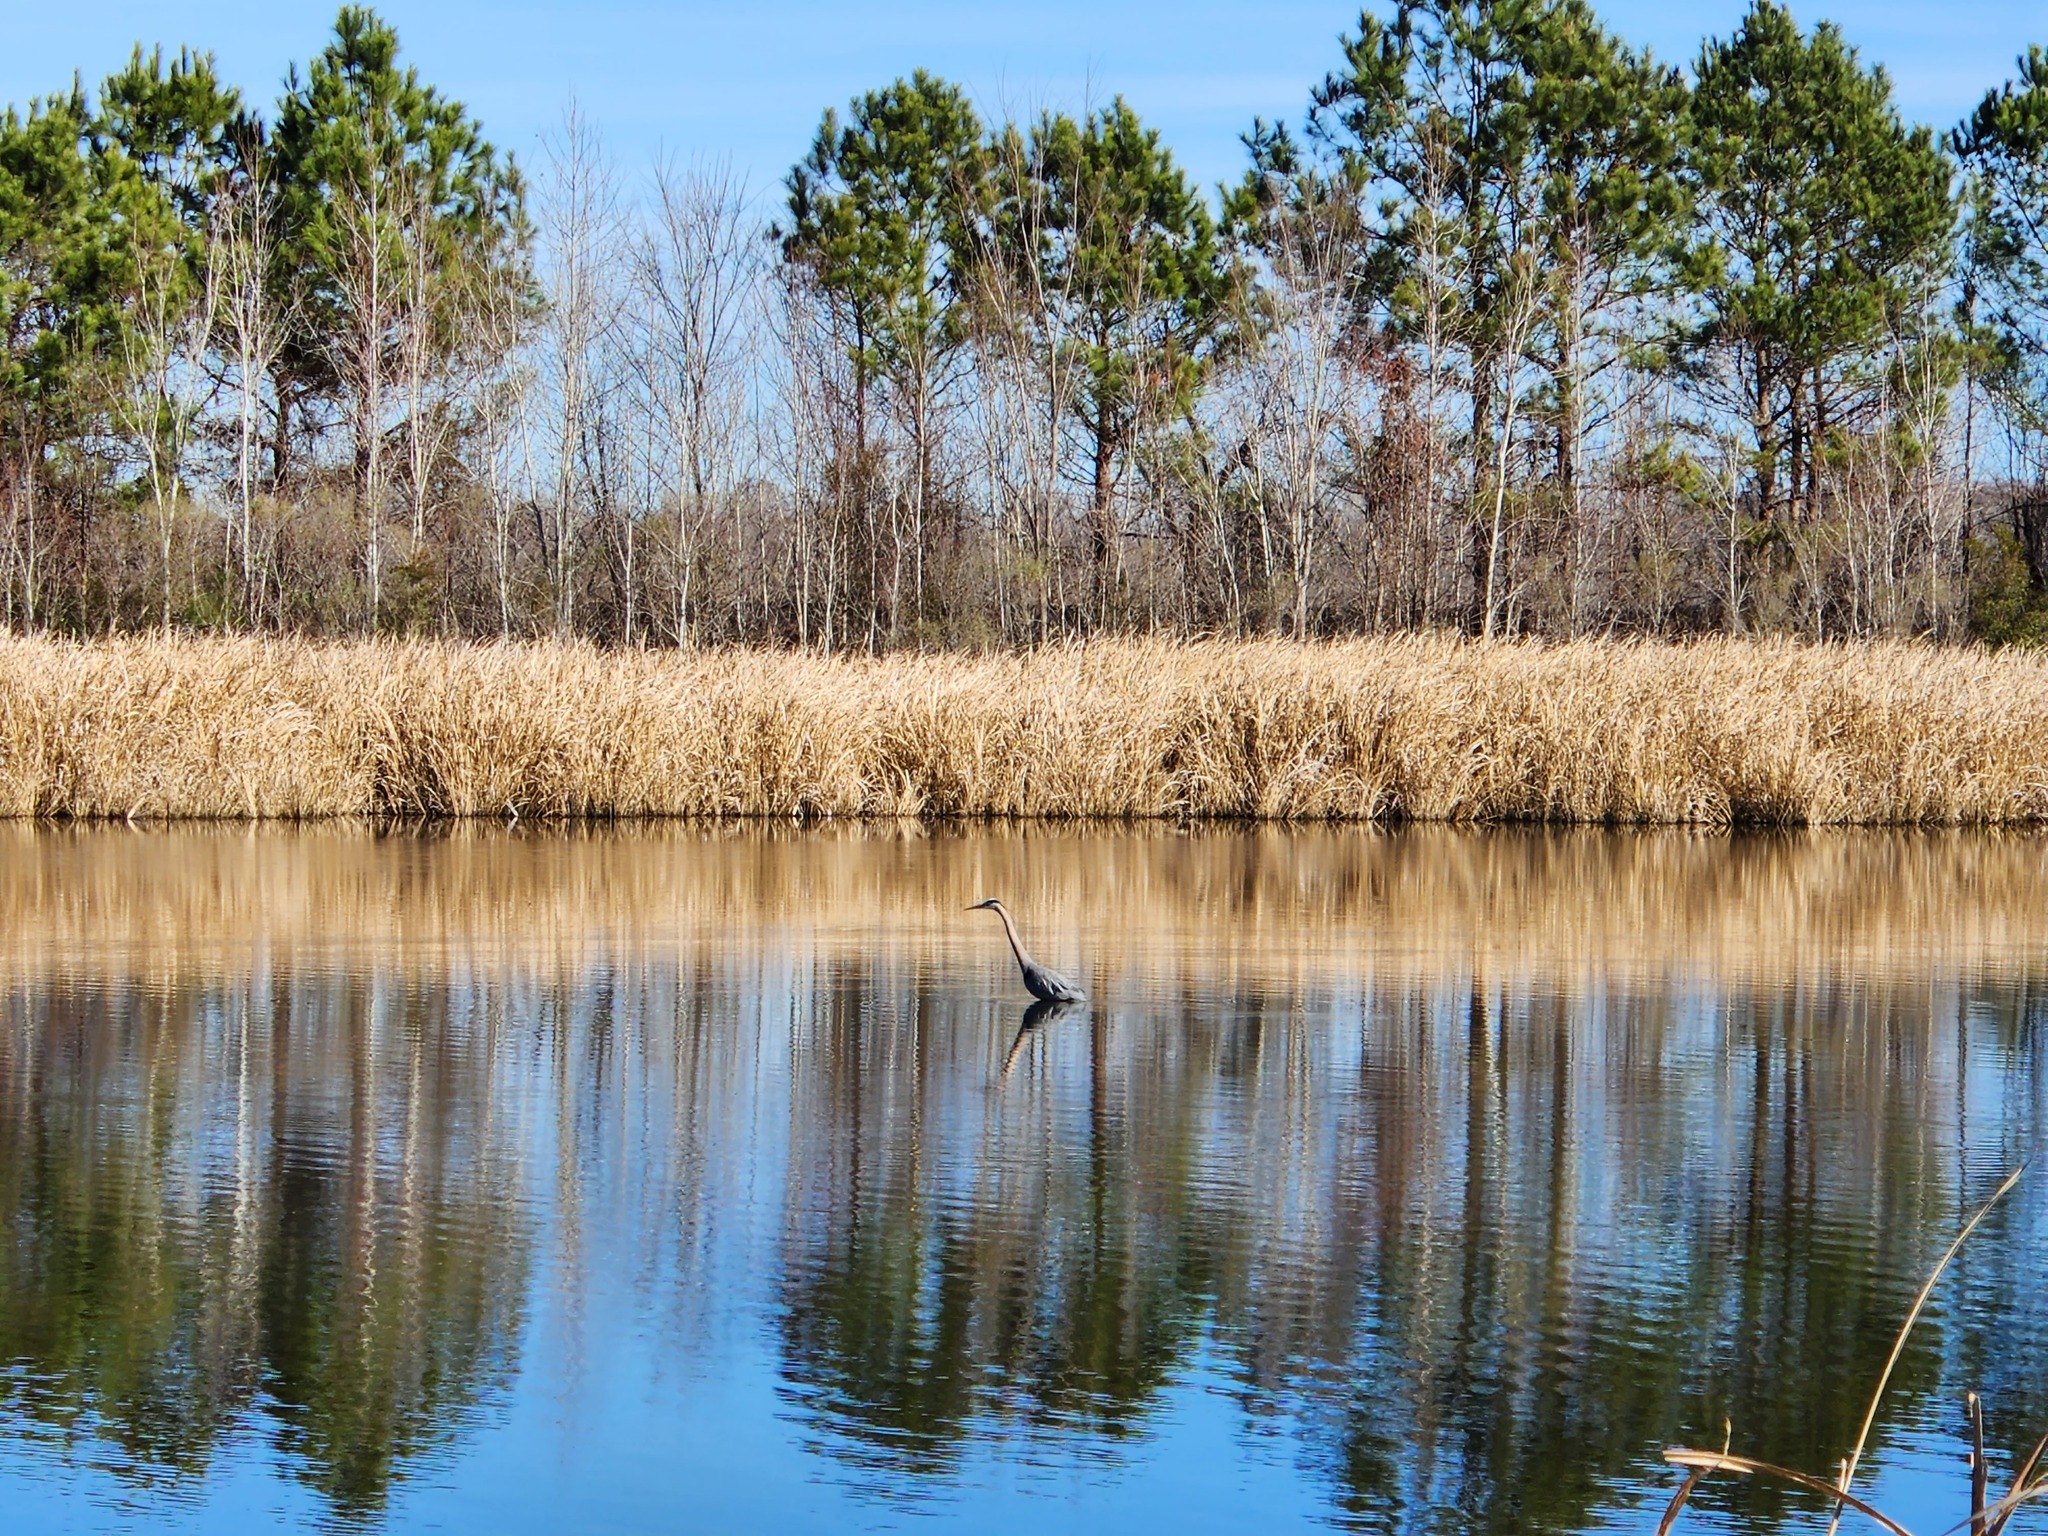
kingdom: Animalia
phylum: Chordata
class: Aves
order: Pelecaniformes
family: Ardeidae
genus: Ardea
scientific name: Ardea herodias
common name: Great blue heron
